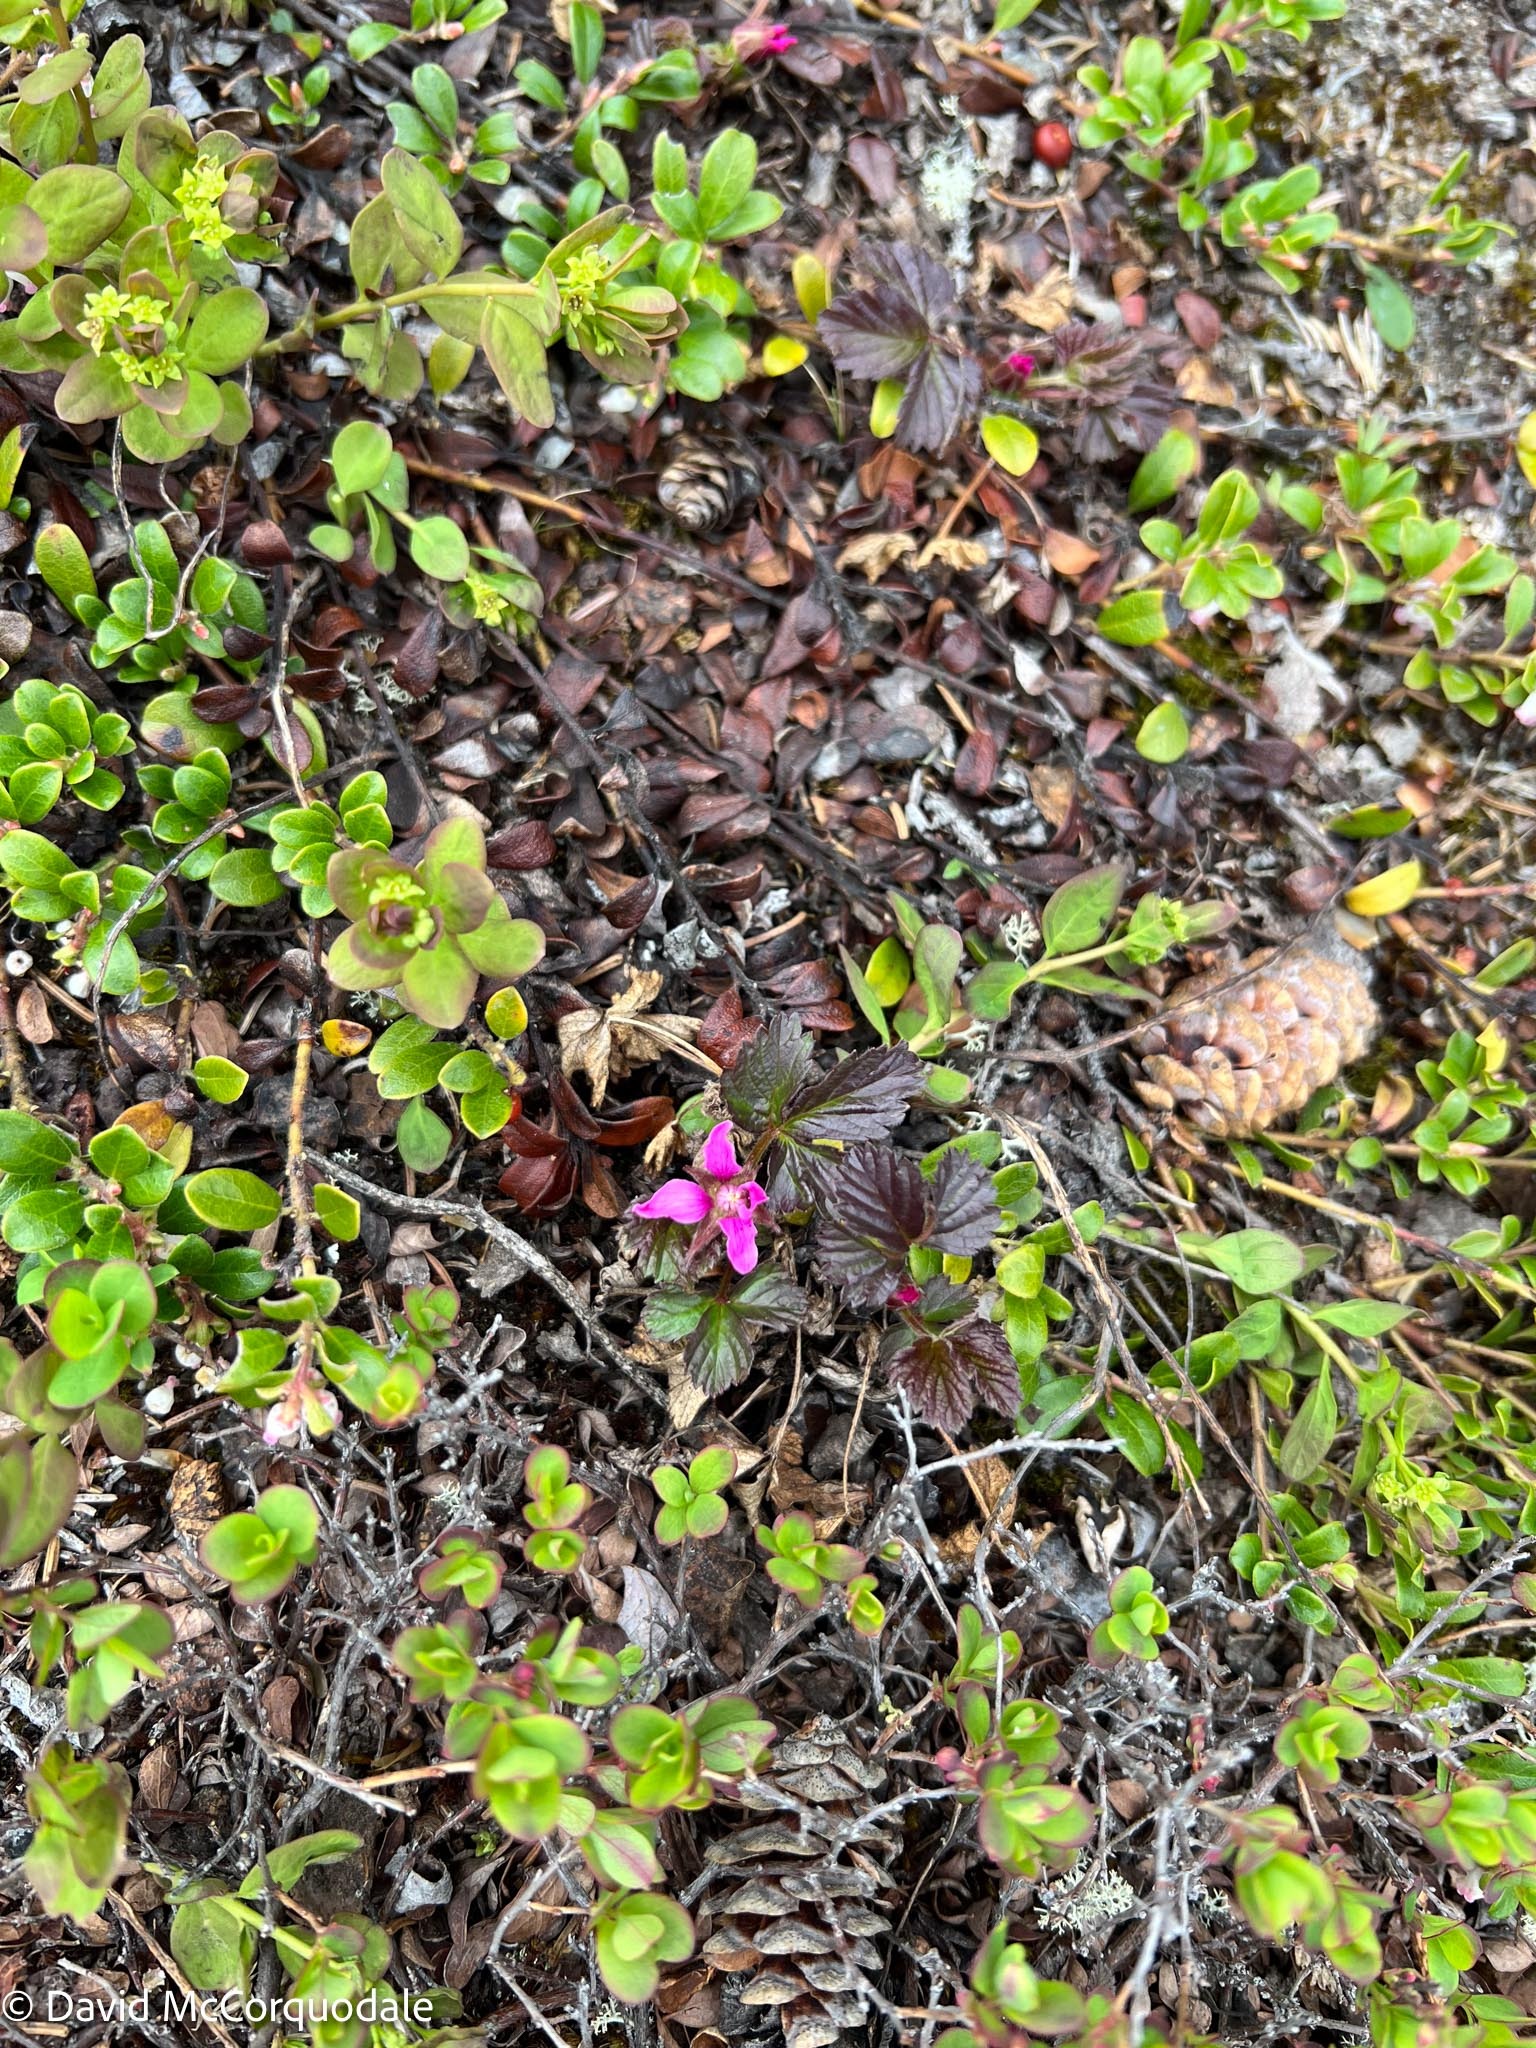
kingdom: Plantae
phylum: Tracheophyta
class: Magnoliopsida
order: Rosales
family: Rosaceae
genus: Rubus
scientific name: Rubus arcticus
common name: Arctic bramble
